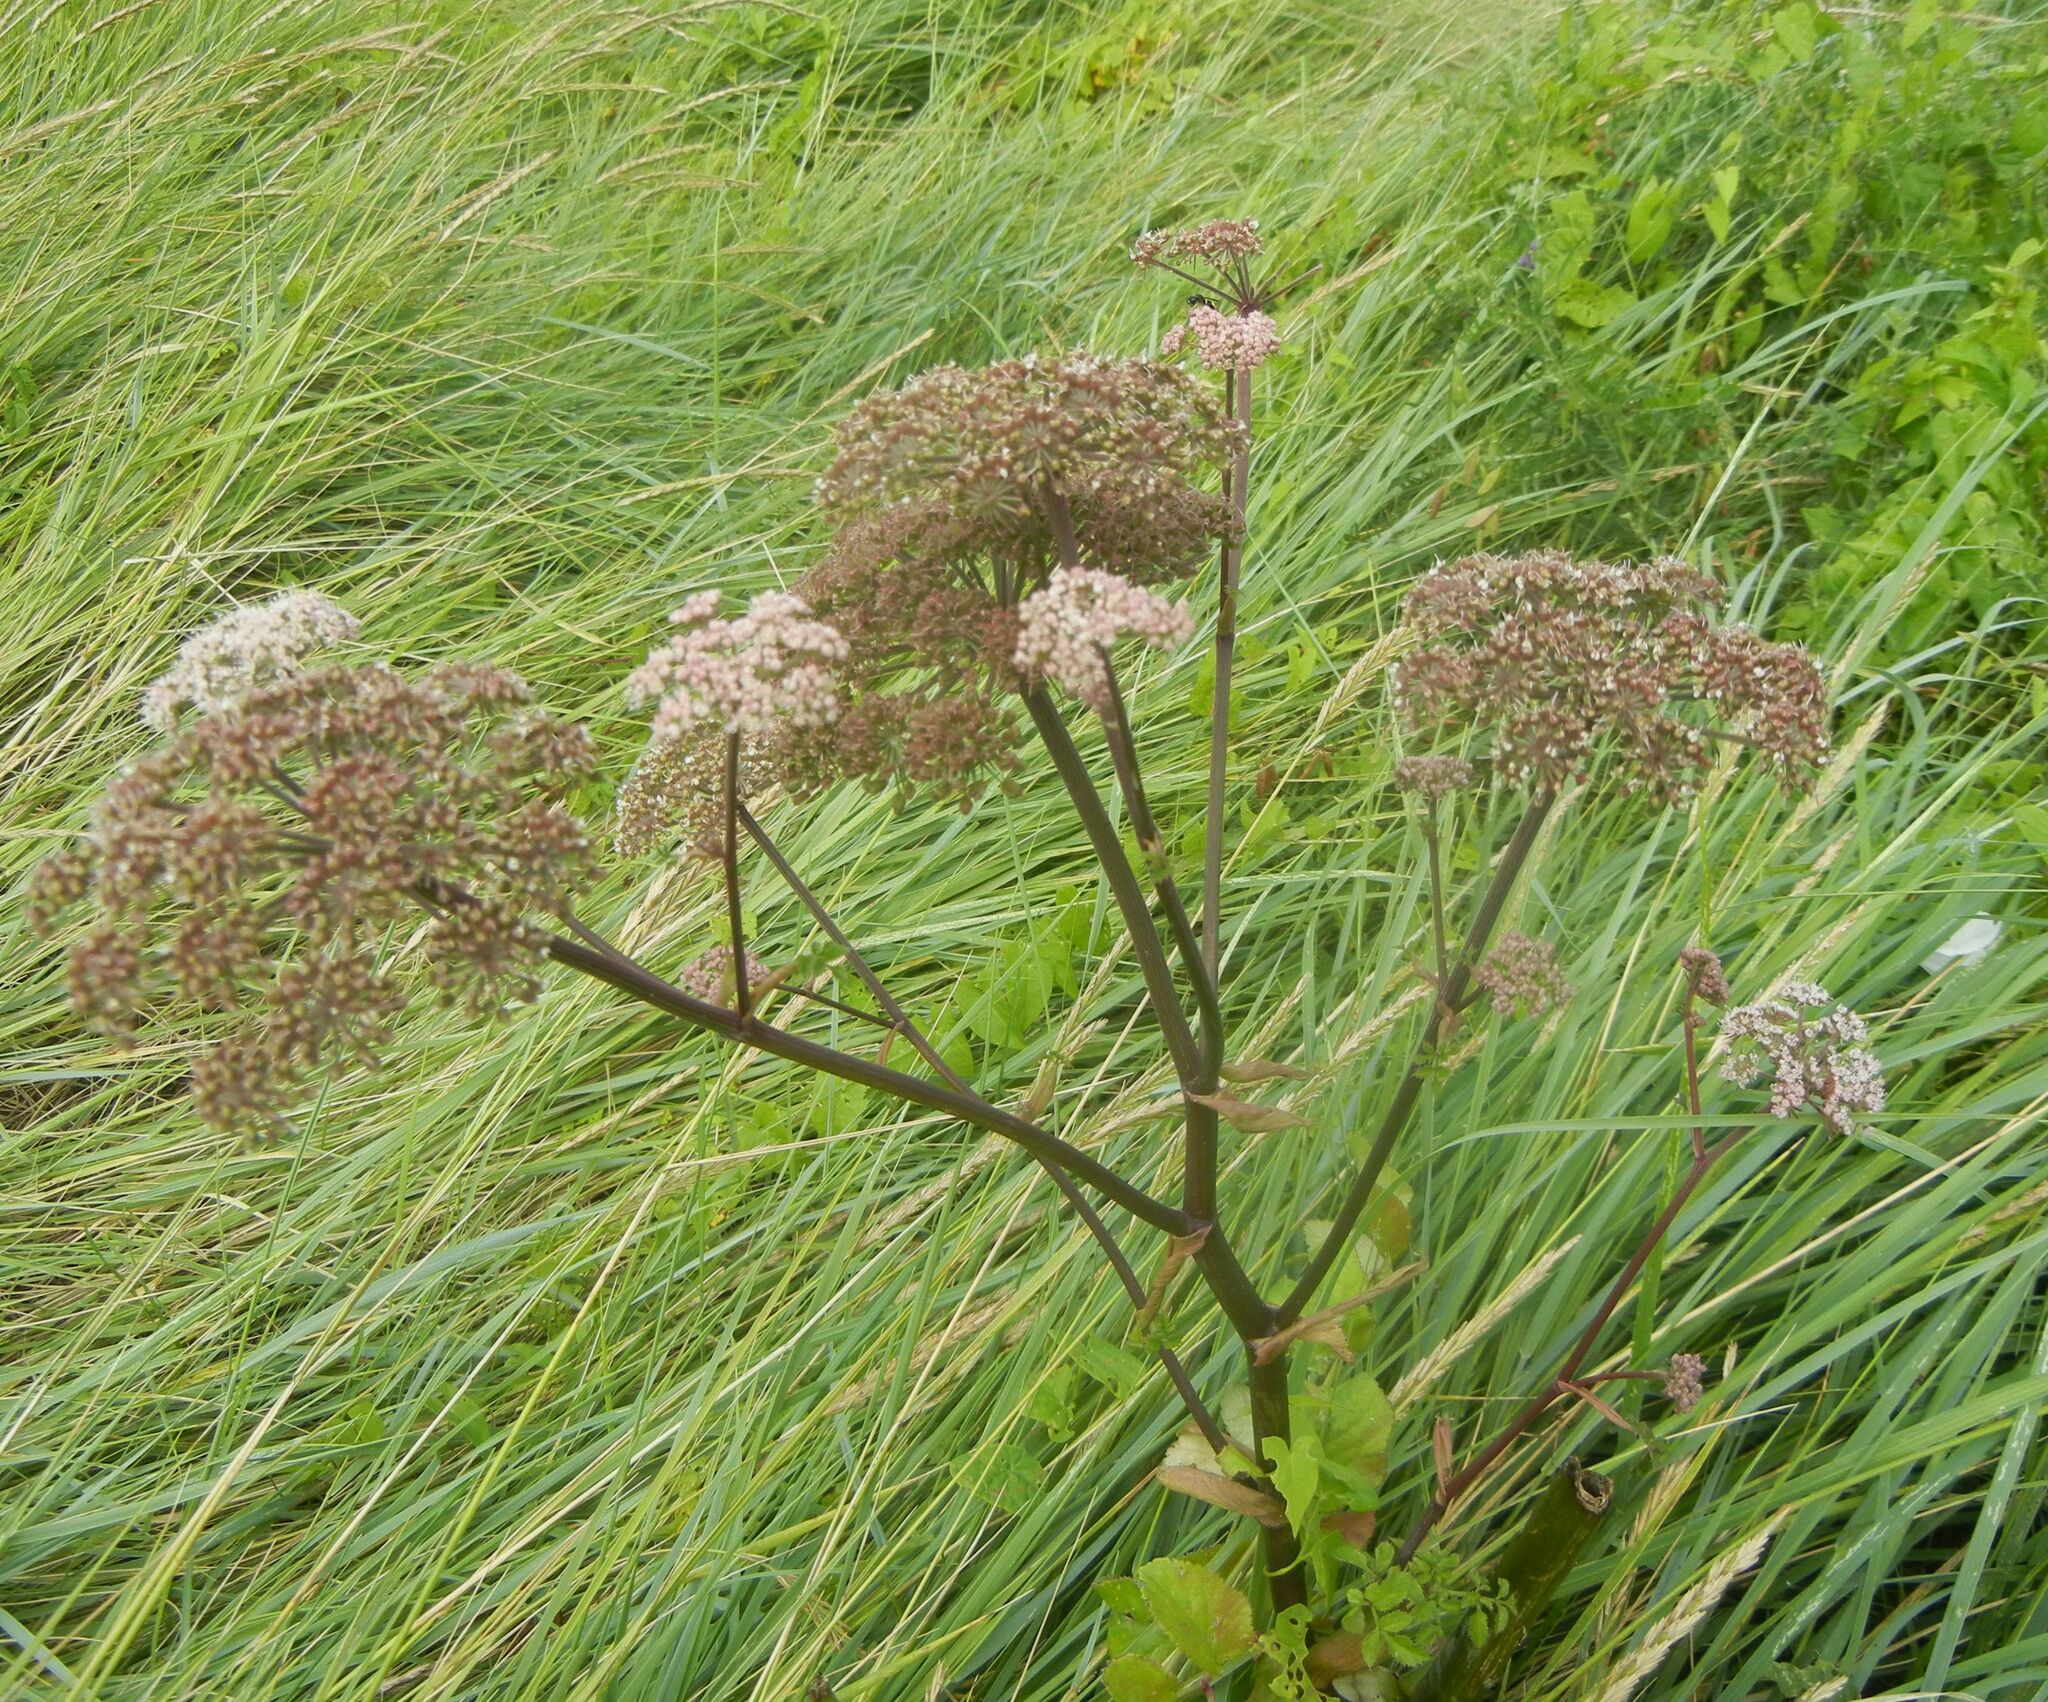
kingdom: Plantae
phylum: Tracheophyta
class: Magnoliopsida
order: Apiales
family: Apiaceae
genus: Angelica
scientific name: Angelica sylvestris
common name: Wild angelica
